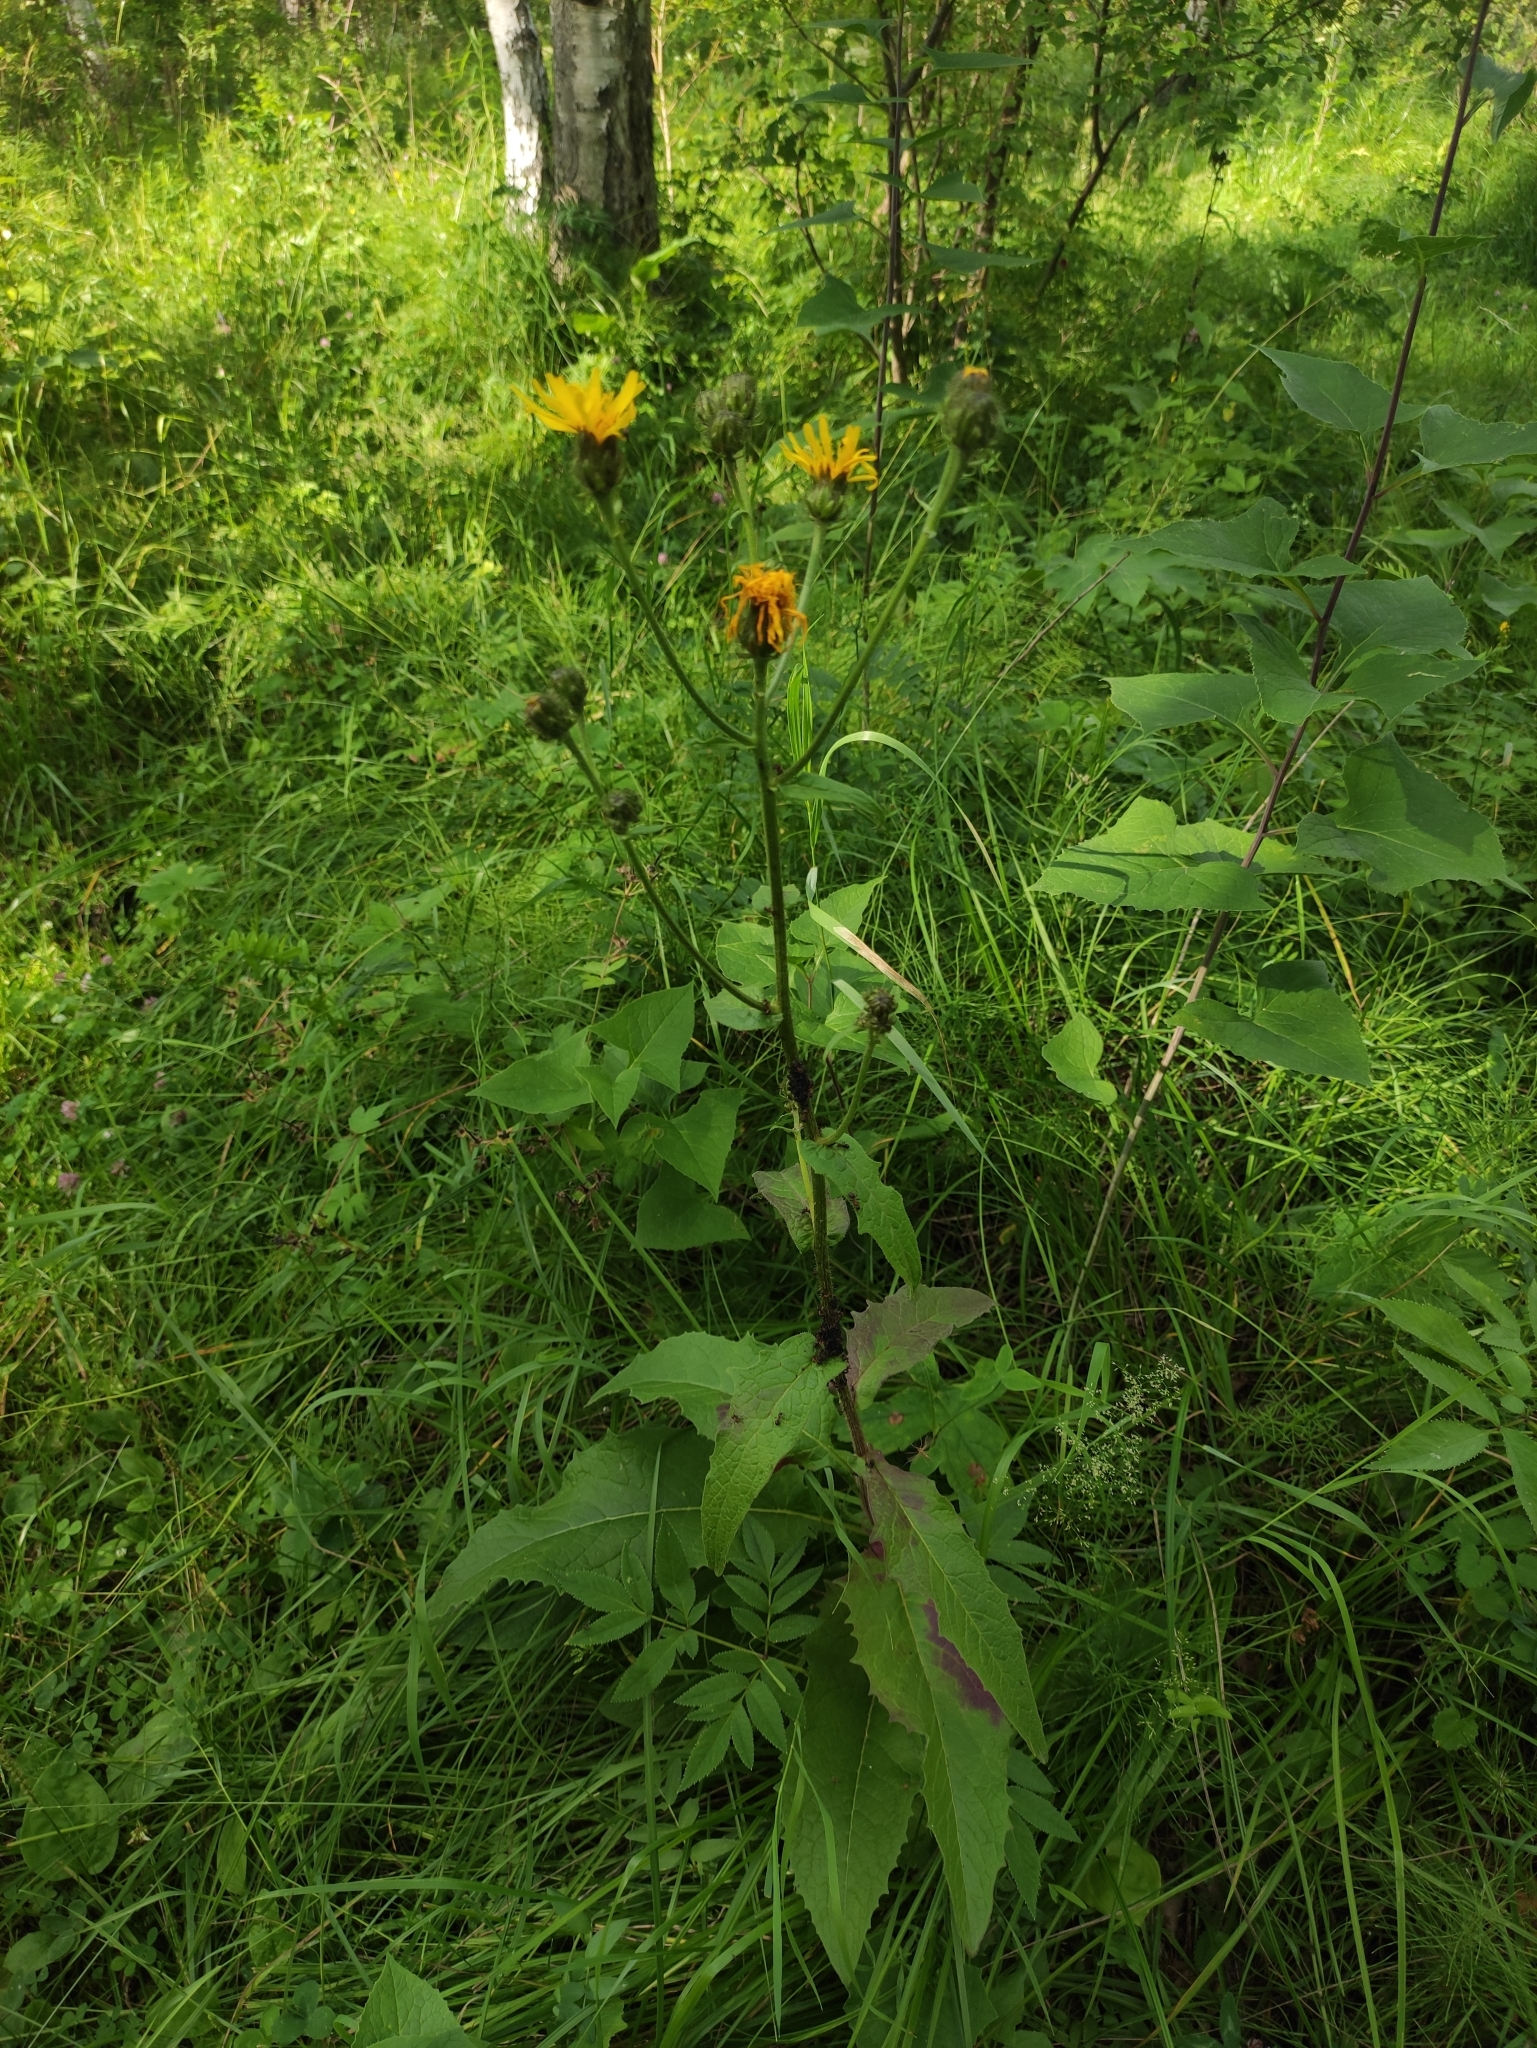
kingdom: Plantae
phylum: Tracheophyta
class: Magnoliopsida
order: Asterales
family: Asteraceae
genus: Crepis
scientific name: Crepis sibirica
